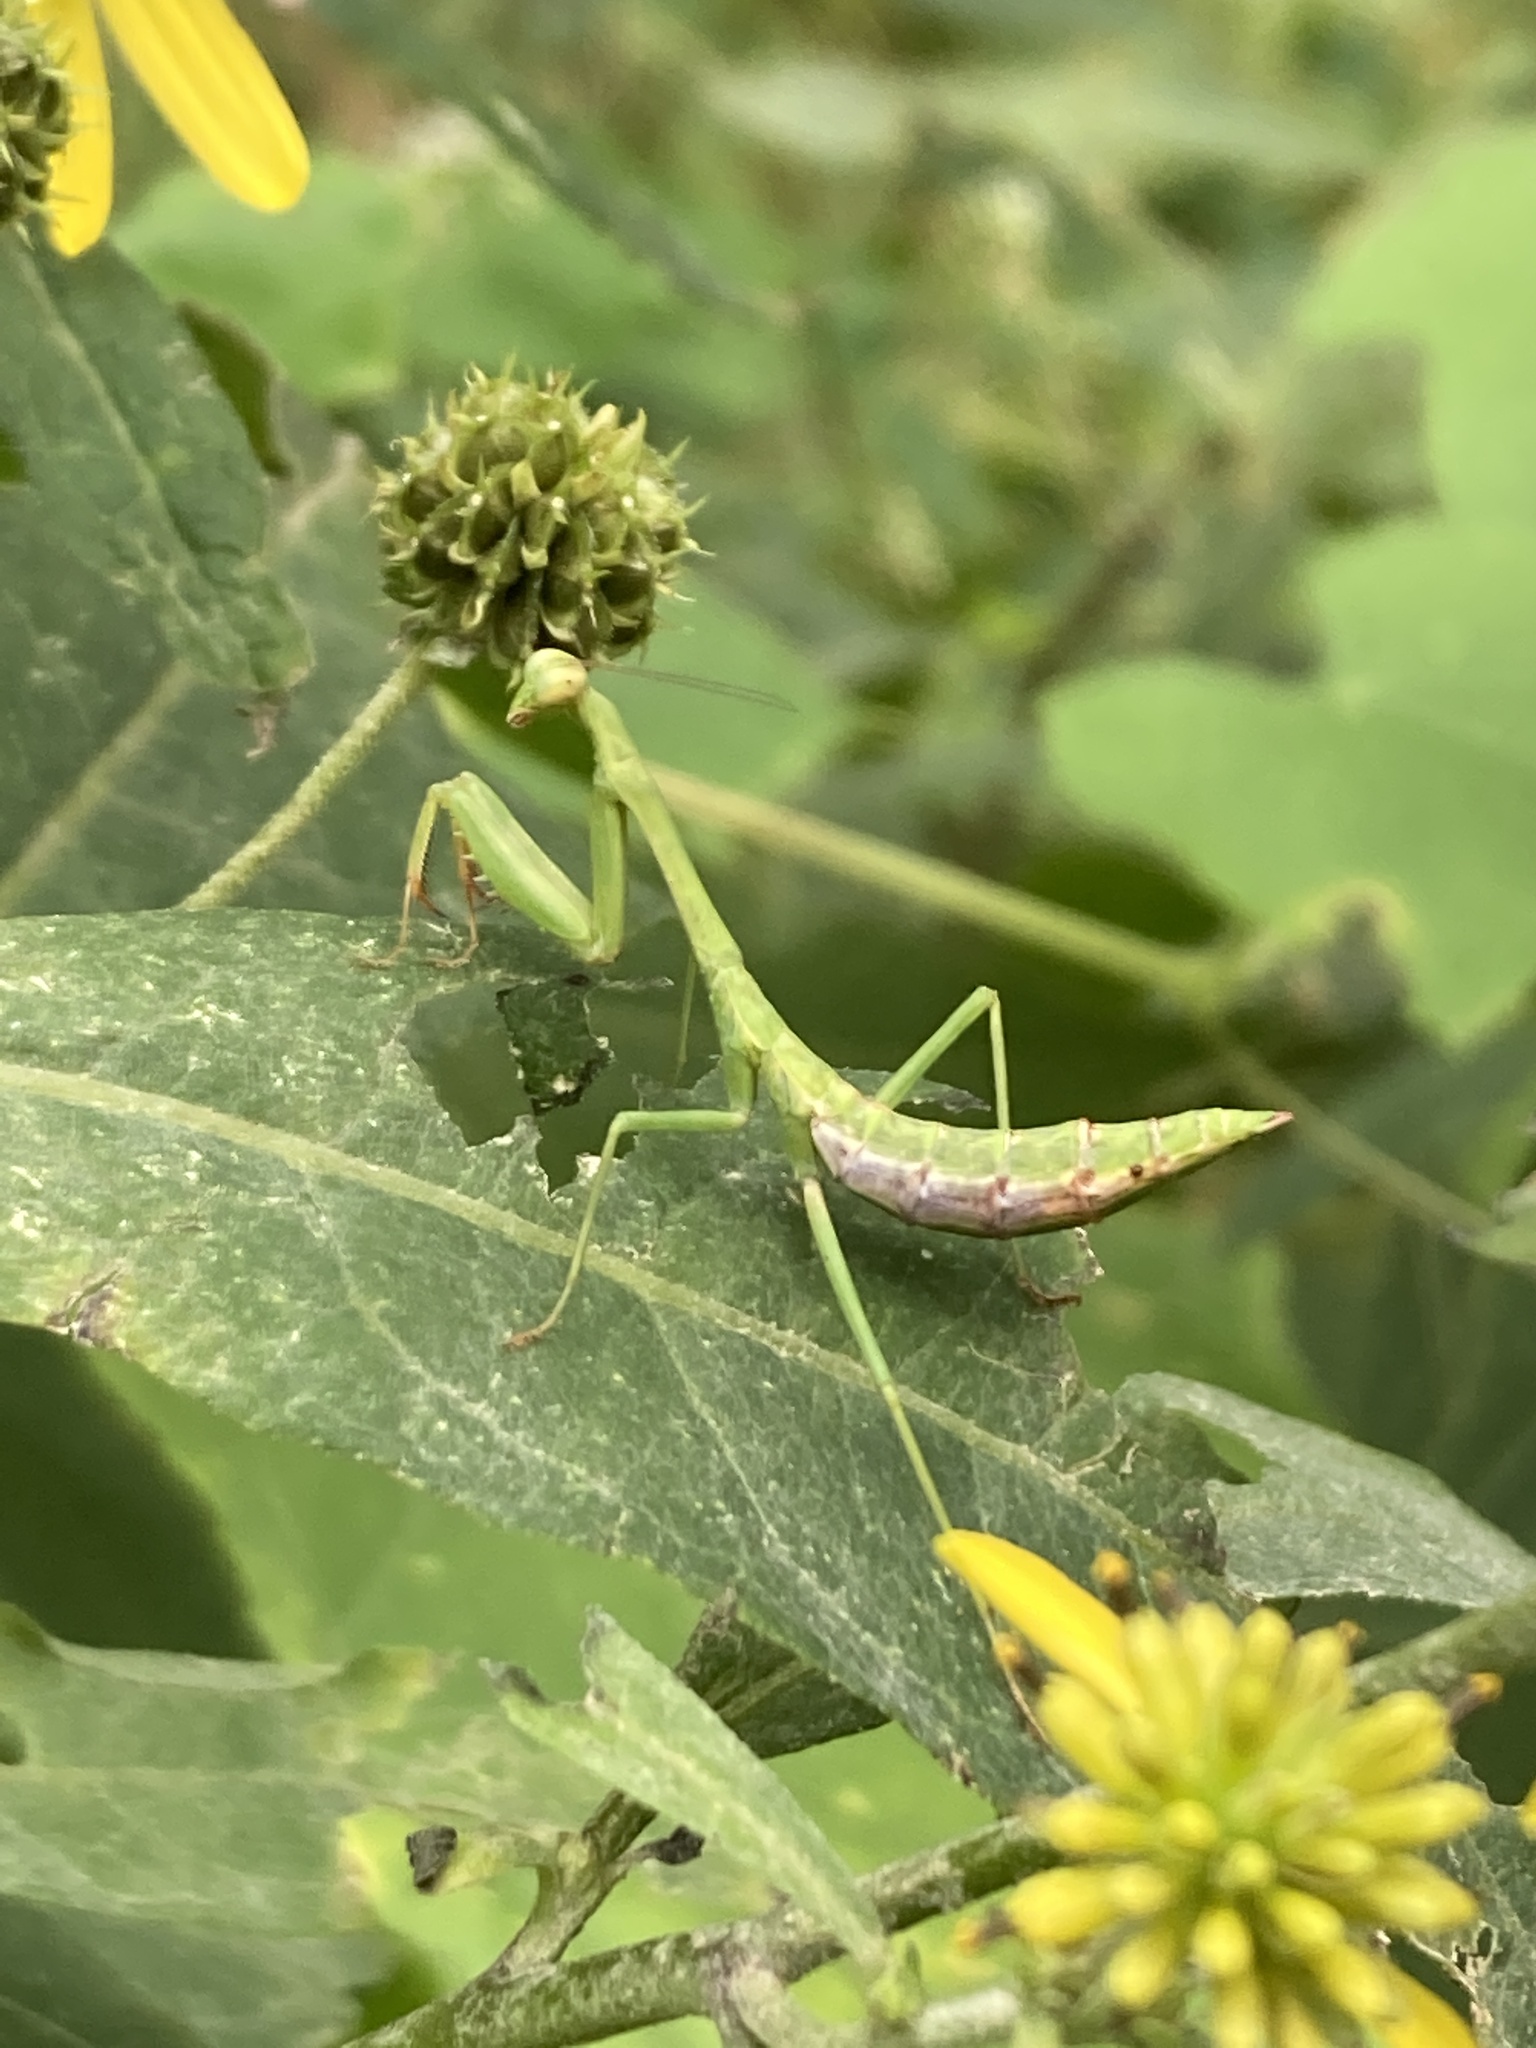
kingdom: Animalia
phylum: Arthropoda
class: Insecta
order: Mantodea
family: Mantidae
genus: Stagmomantis
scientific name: Stagmomantis carolina
